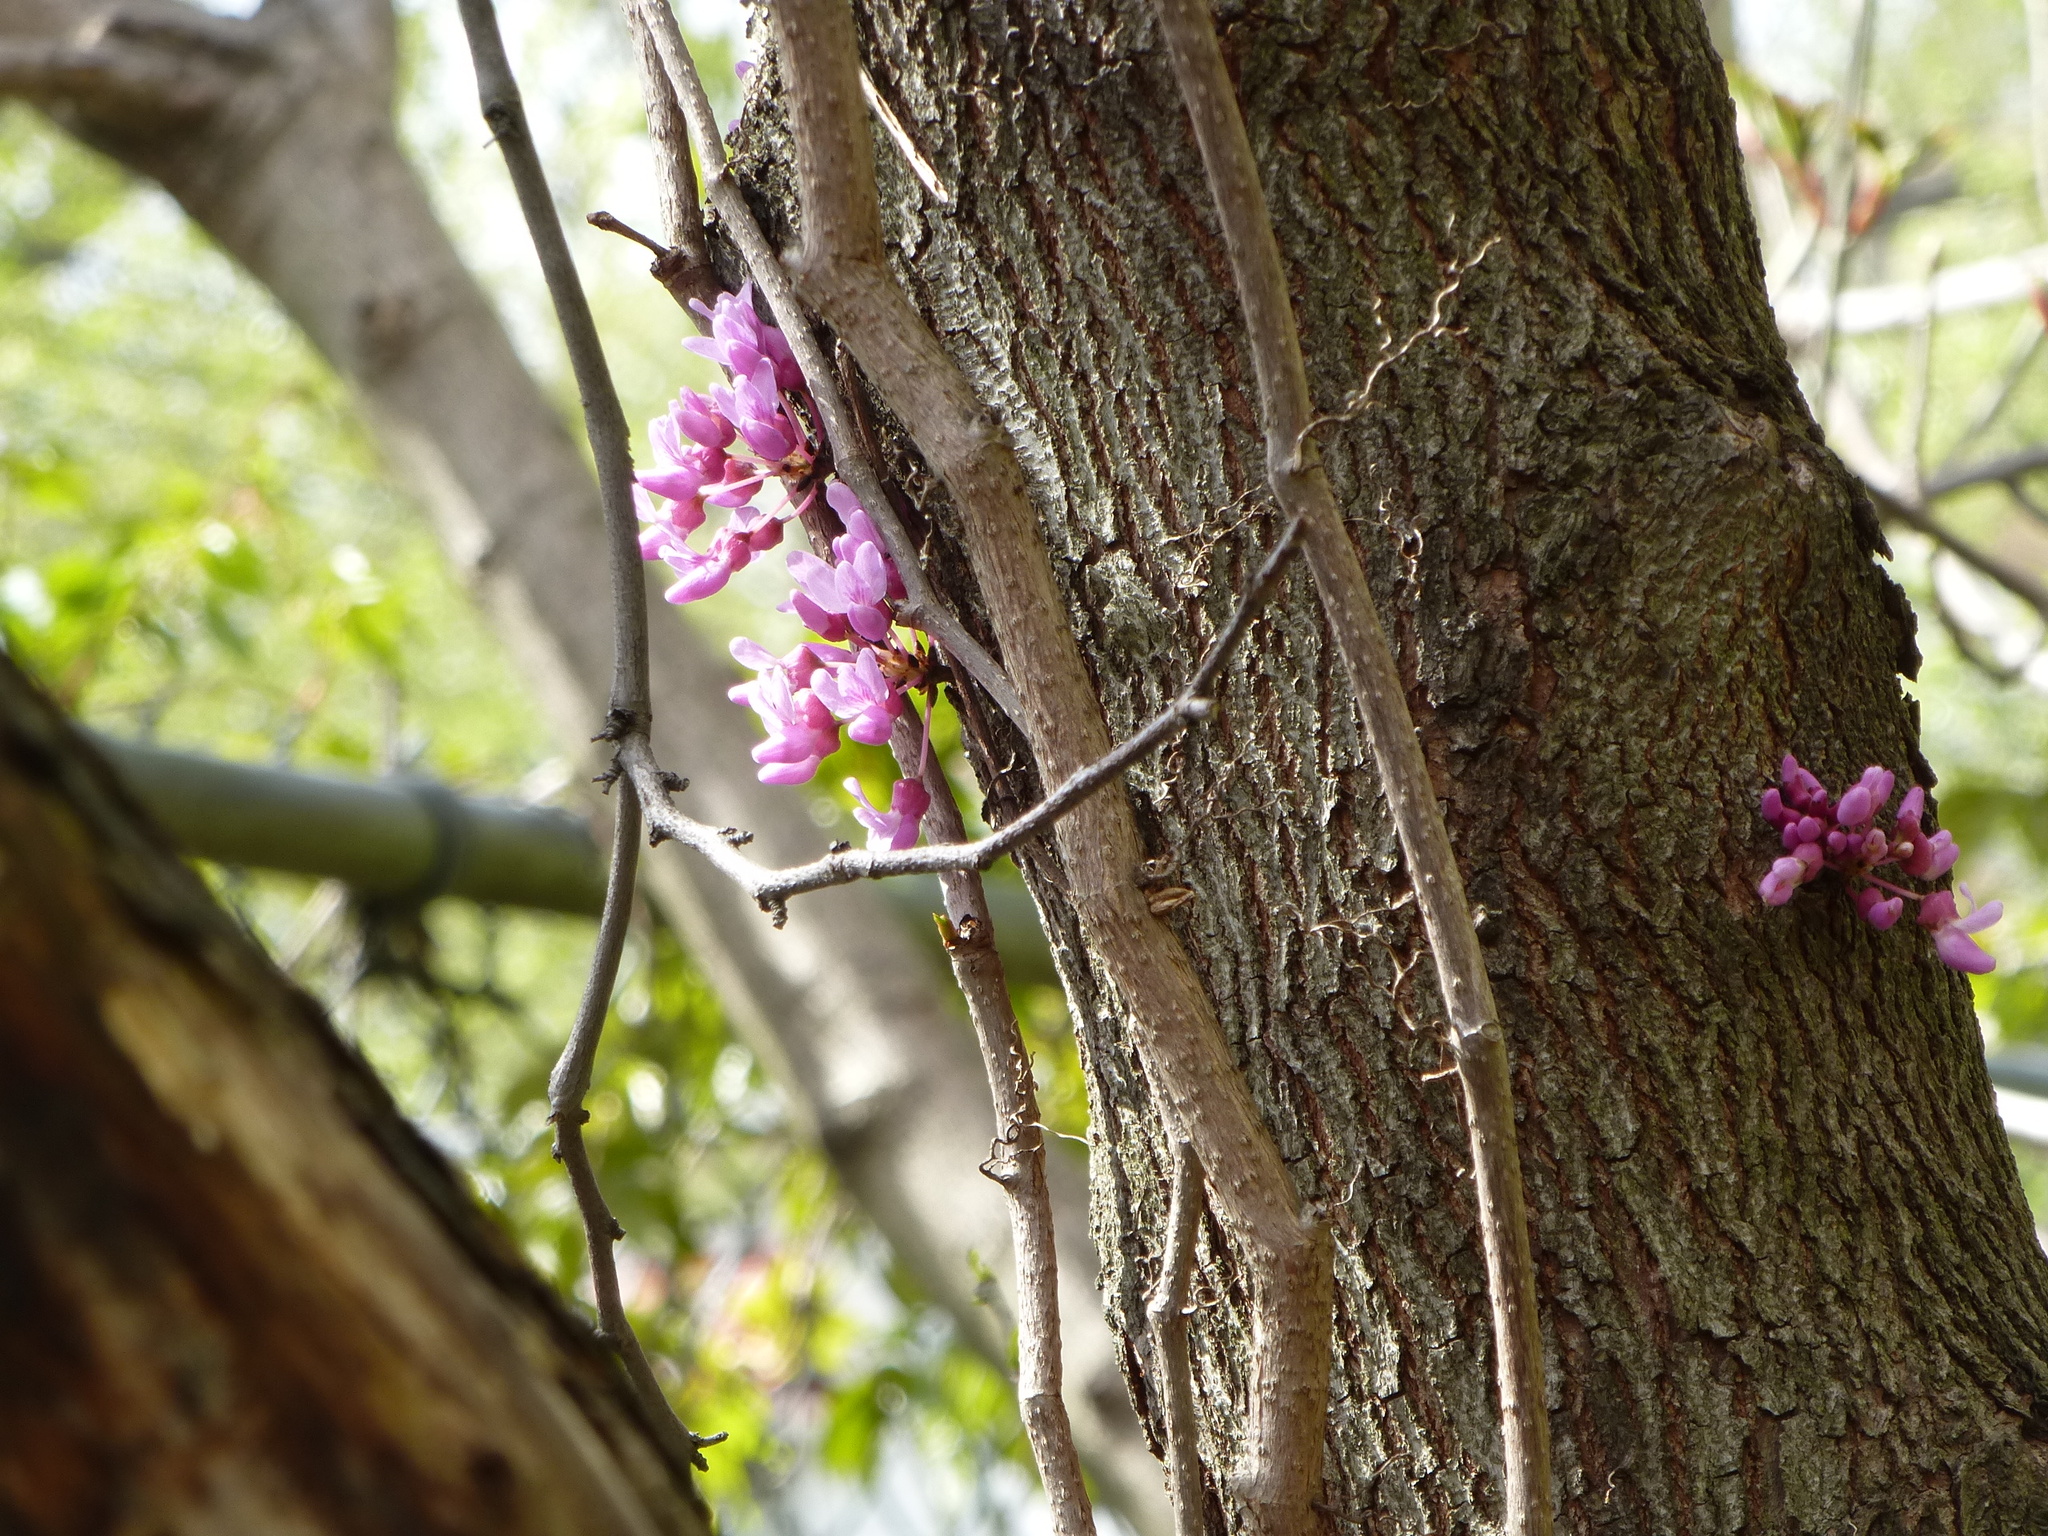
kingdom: Plantae
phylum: Tracheophyta
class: Magnoliopsida
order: Fabales
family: Fabaceae
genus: Cercis
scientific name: Cercis canadensis
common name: Eastern redbud
